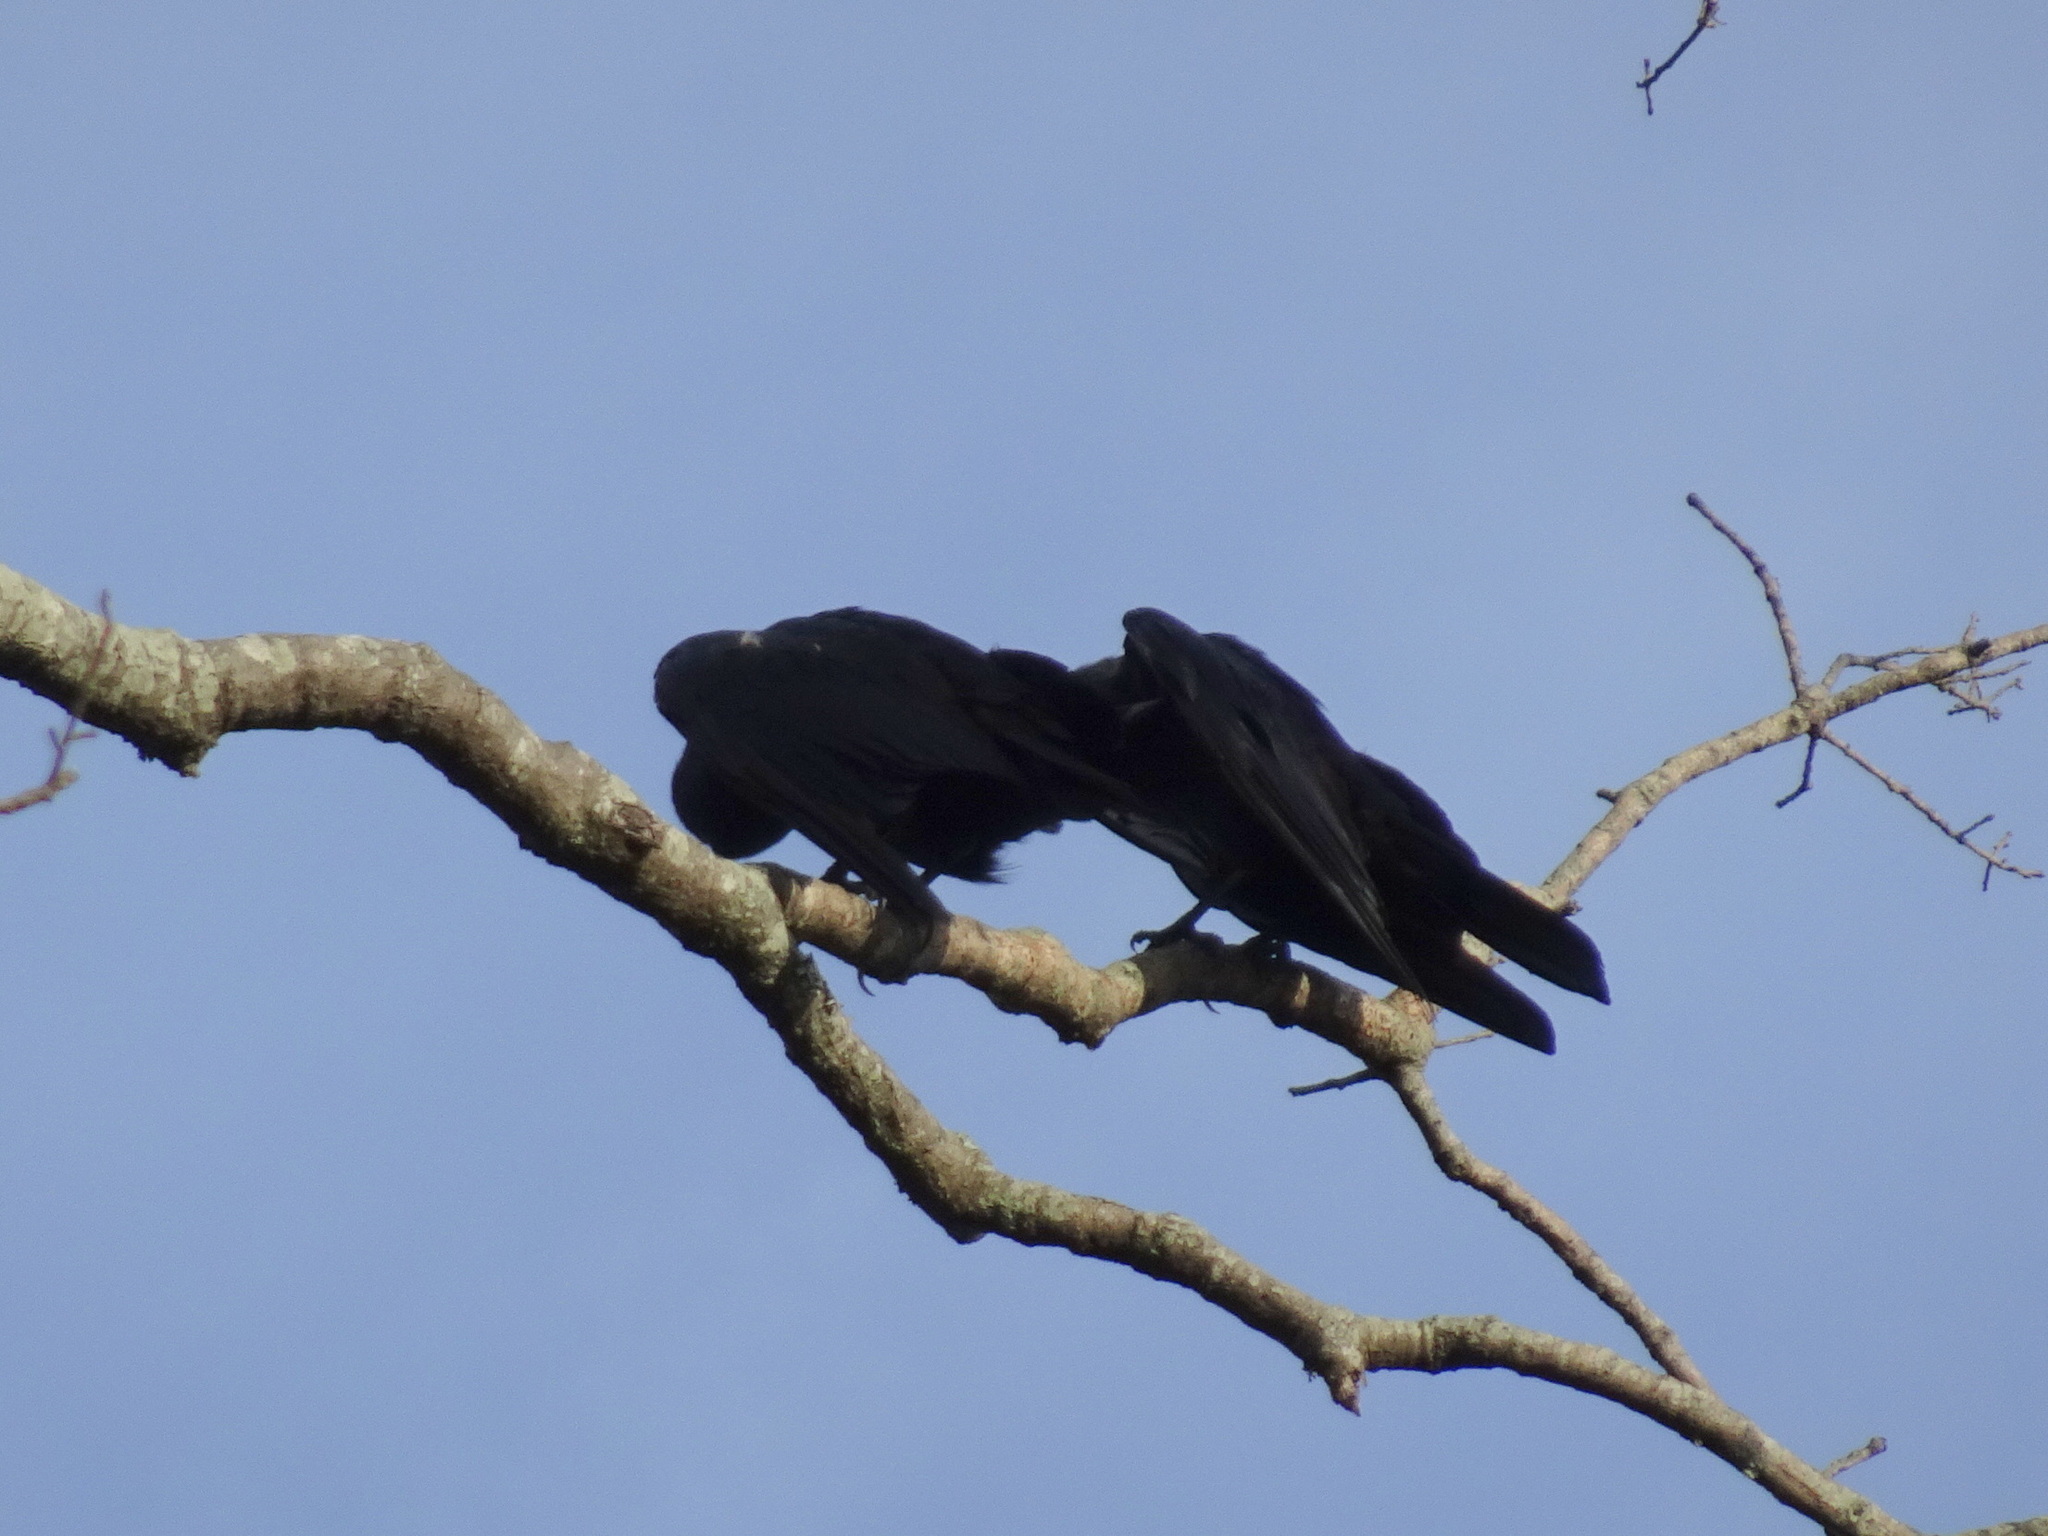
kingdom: Animalia
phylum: Chordata
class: Aves
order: Passeriformes
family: Corvidae
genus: Corvus
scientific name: Corvus
